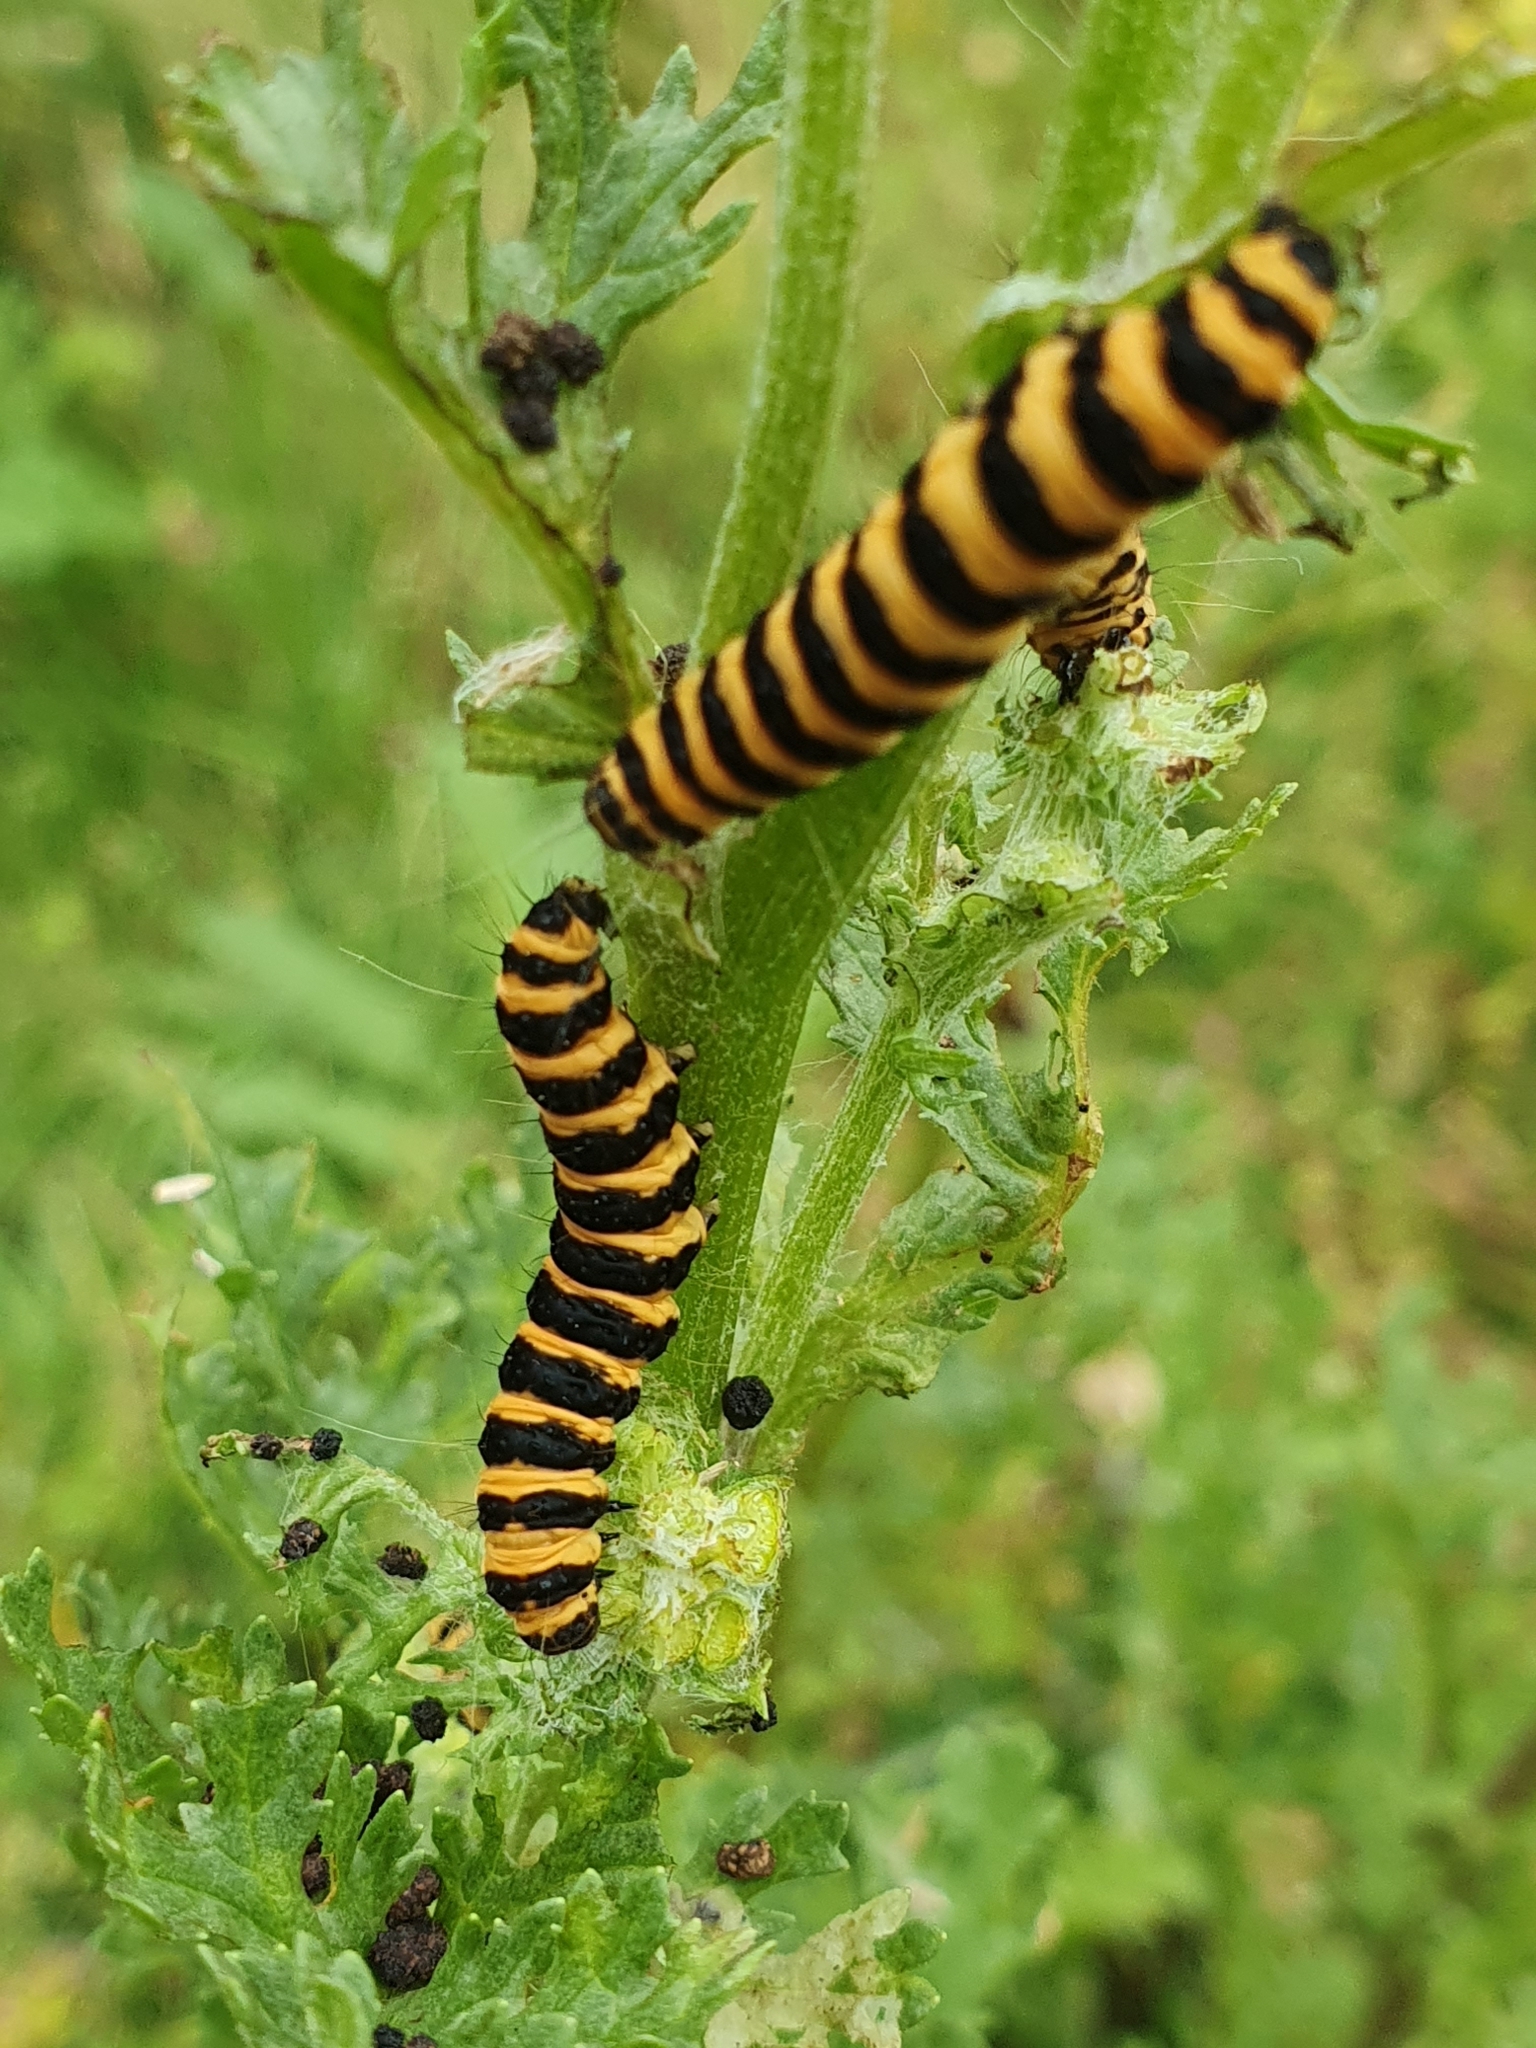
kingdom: Animalia
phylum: Arthropoda
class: Insecta
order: Lepidoptera
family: Erebidae
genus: Tyria
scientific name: Tyria jacobaeae
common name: Cinnabar
